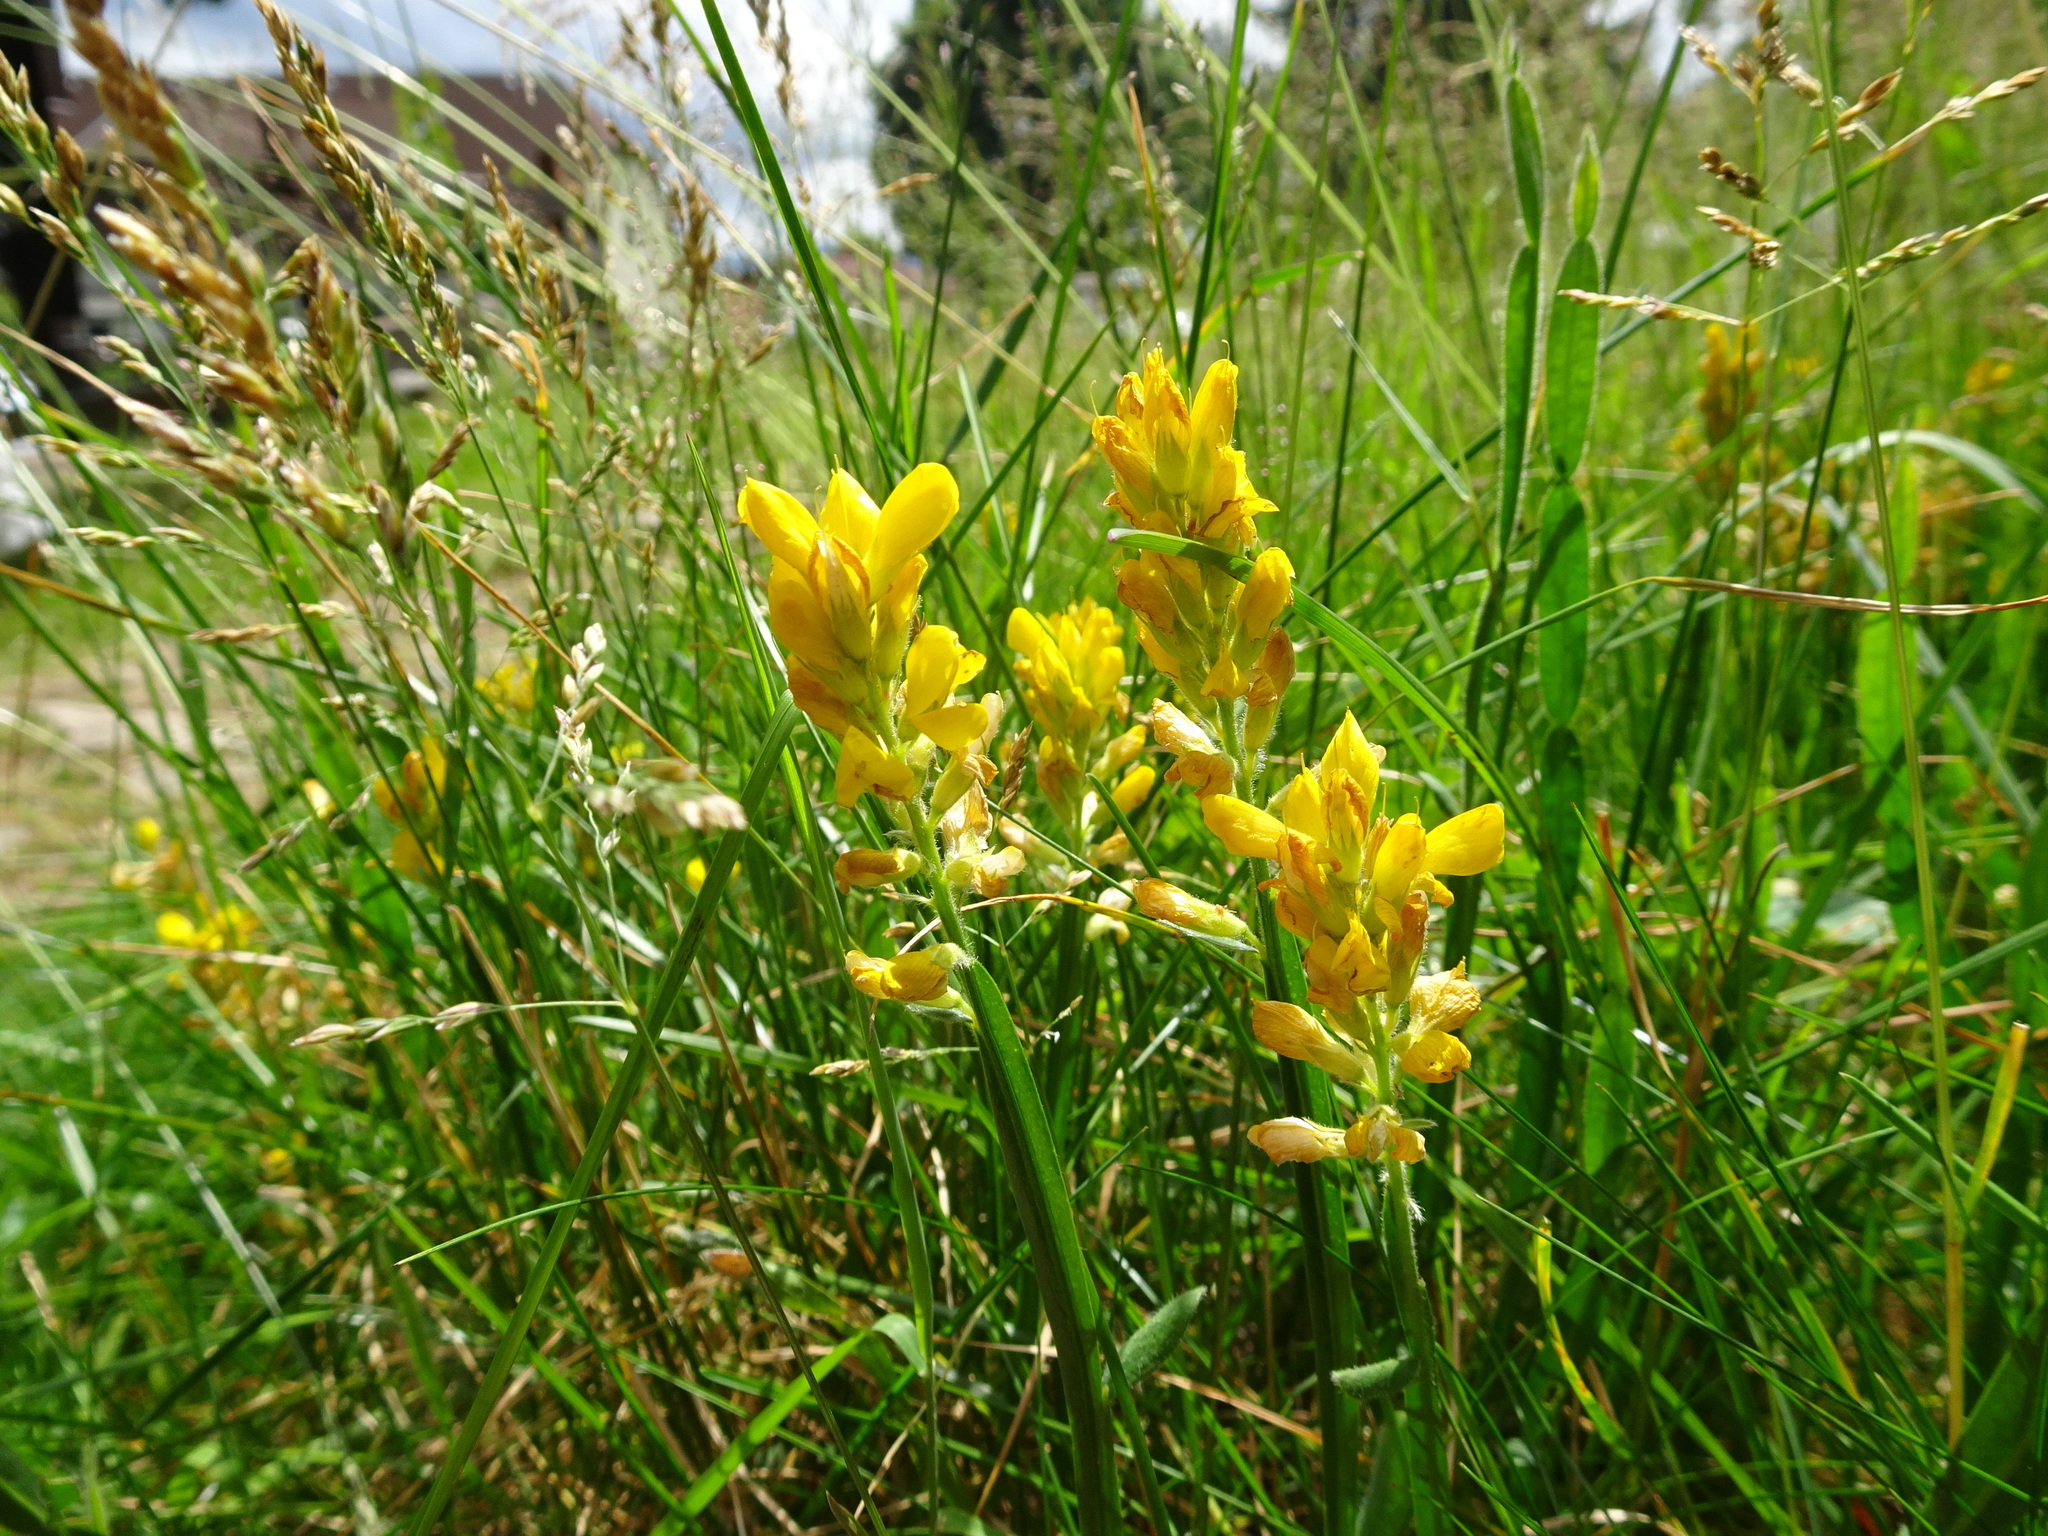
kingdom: Plantae
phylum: Tracheophyta
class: Magnoliopsida
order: Fabales
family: Fabaceae
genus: Genista
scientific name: Genista sagittalis
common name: Winged greenweed
